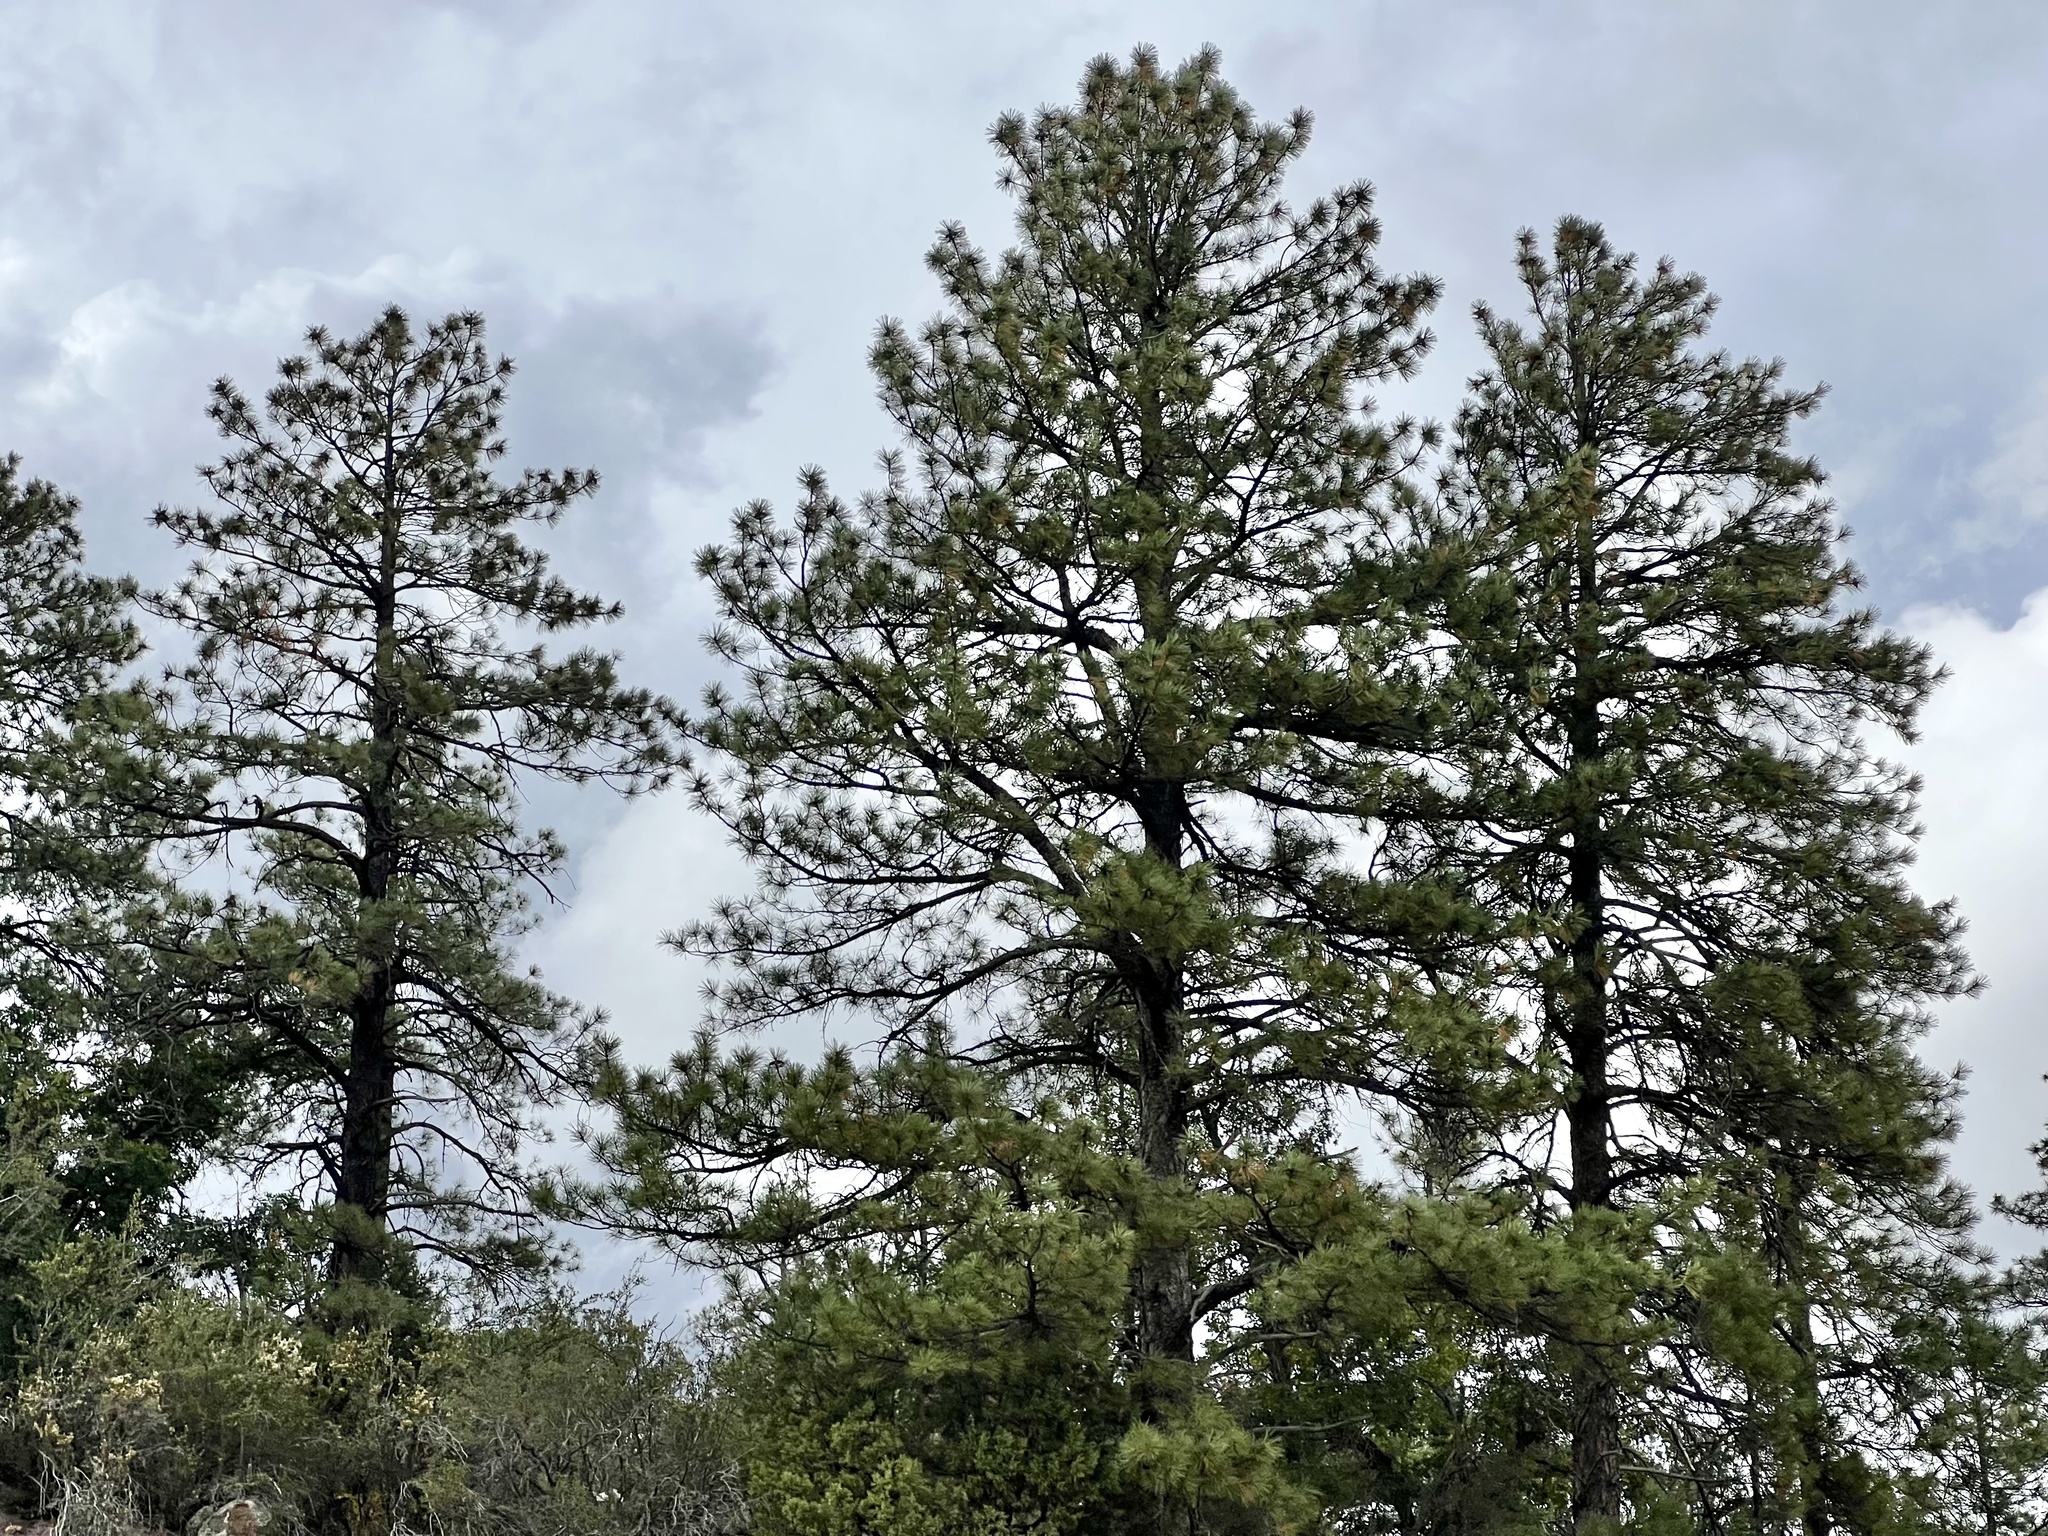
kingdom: Plantae
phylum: Tracheophyta
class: Pinopsida
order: Pinales
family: Pinaceae
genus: Pinus
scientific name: Pinus ponderosa
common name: Western yellow-pine
